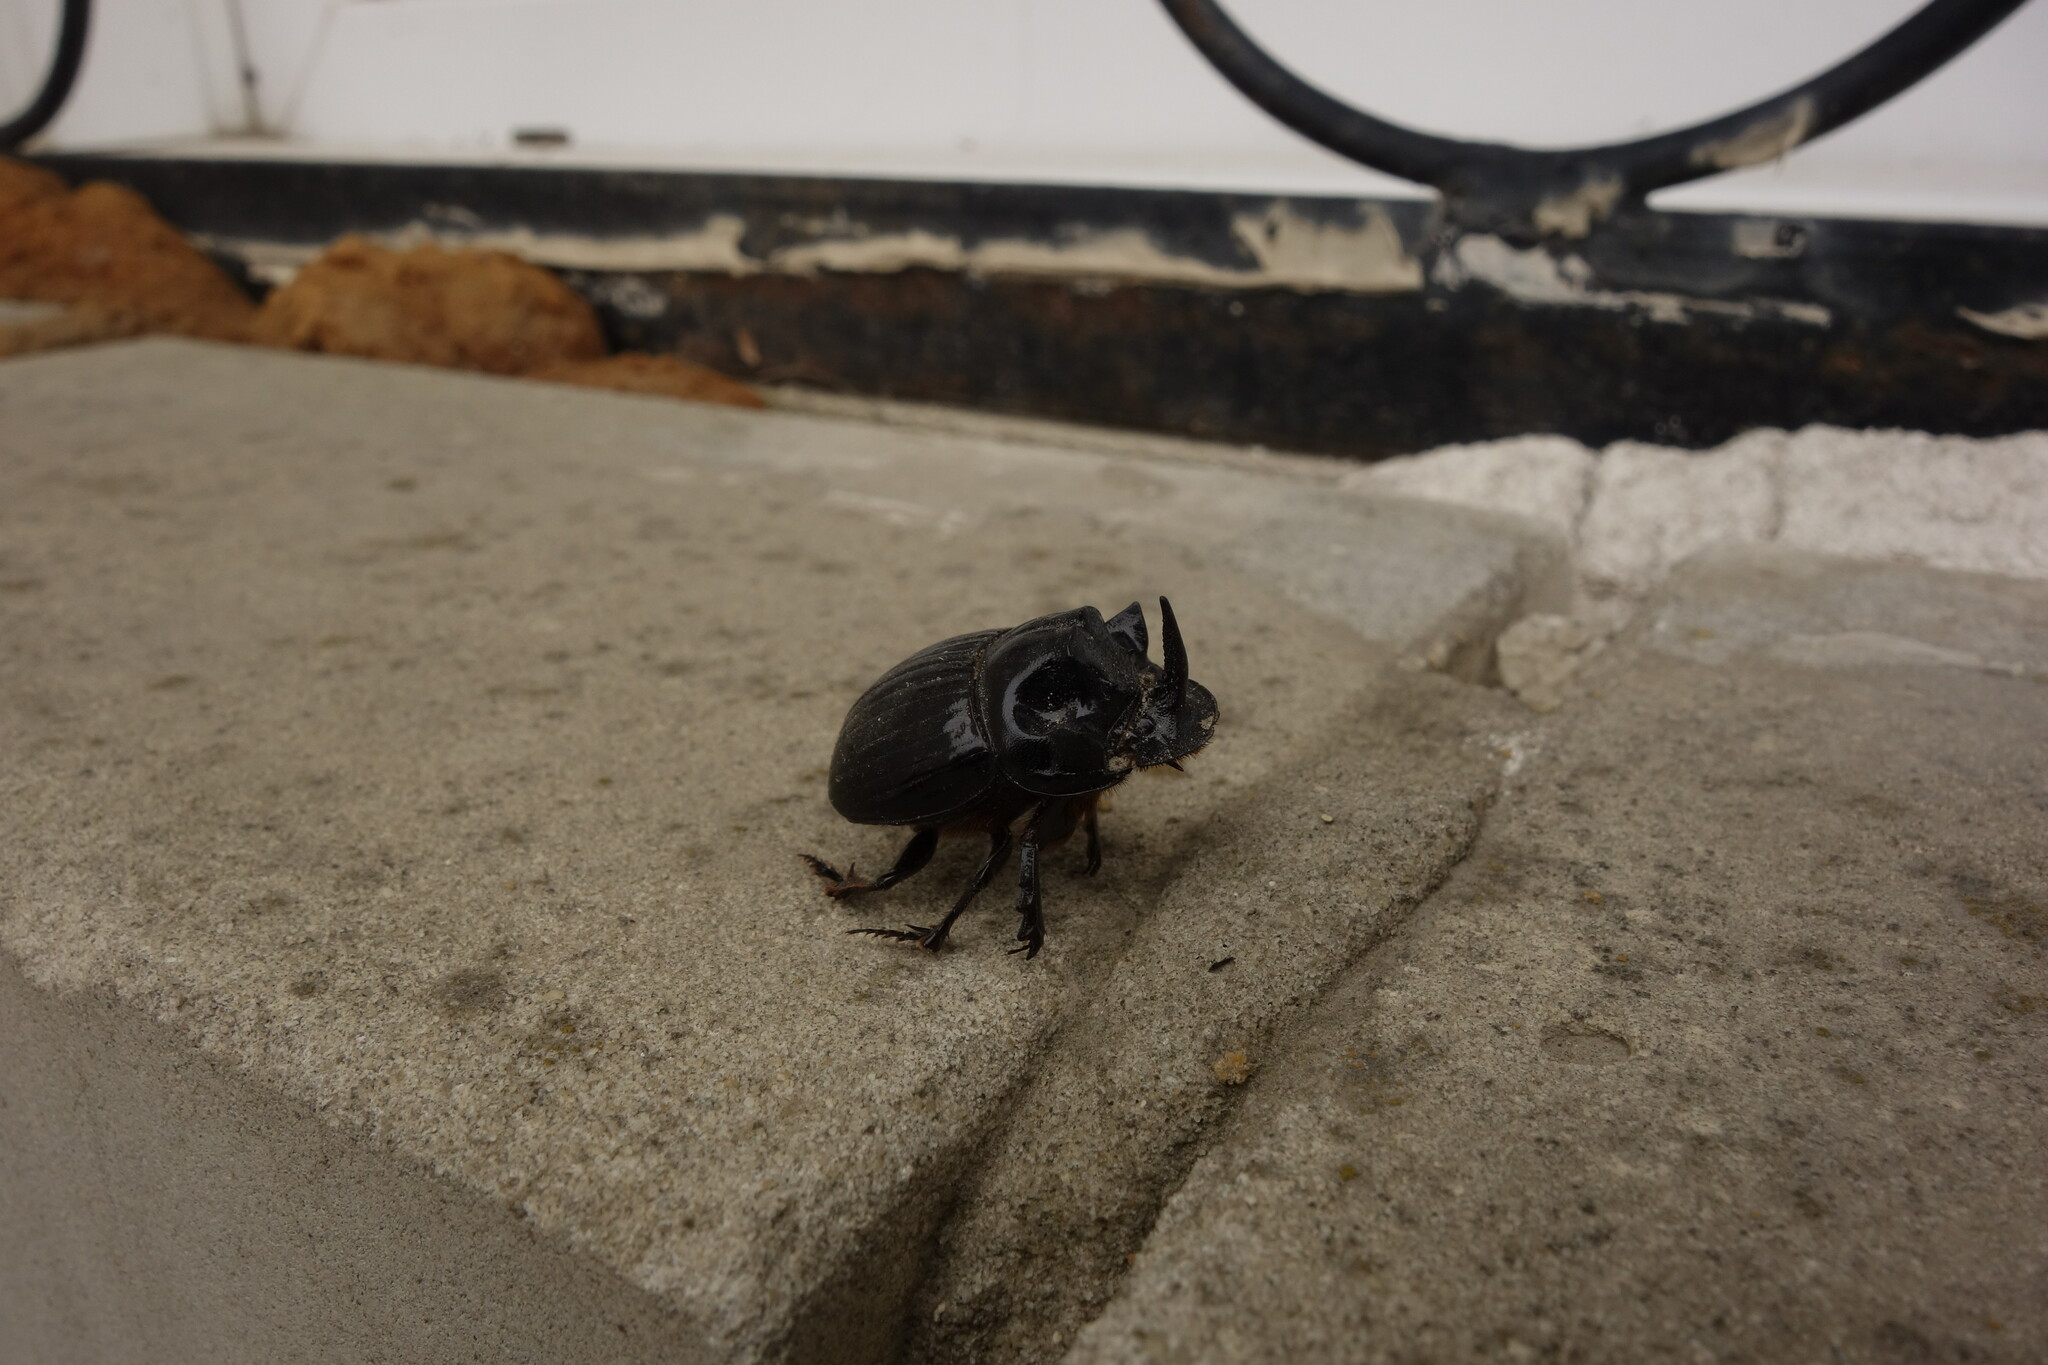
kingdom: Animalia
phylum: Arthropoda
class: Insecta
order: Coleoptera
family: Scarabaeidae
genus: Copris
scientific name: Copris lunaris
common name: Horned dung beetle
